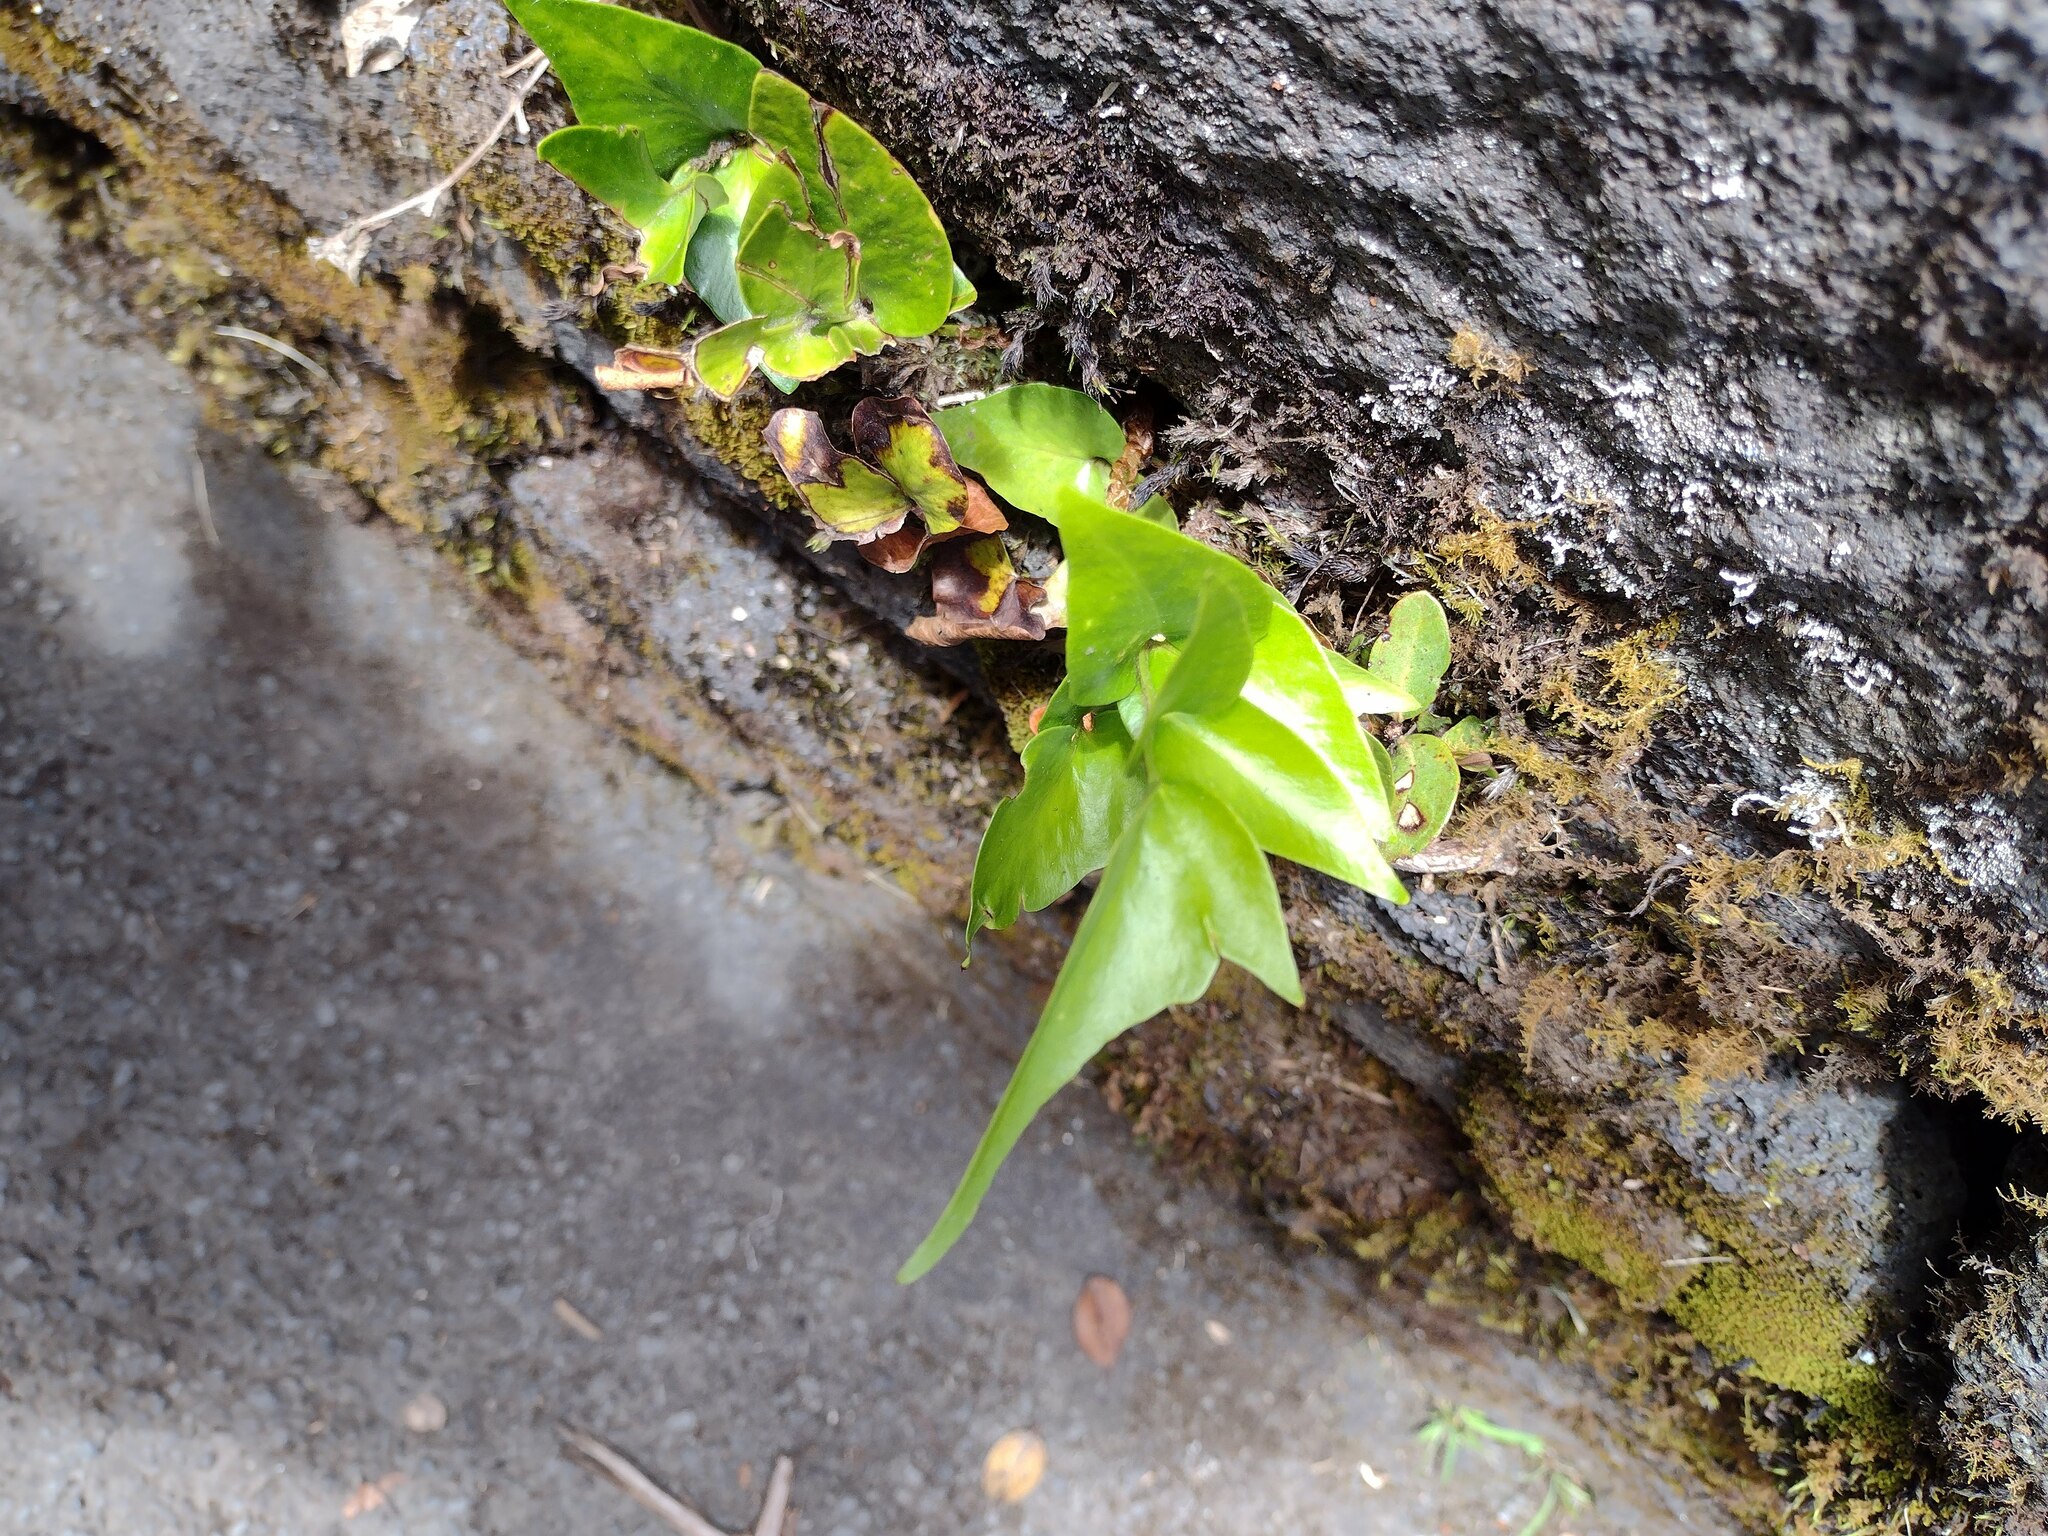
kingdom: Plantae
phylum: Tracheophyta
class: Polypodiopsida
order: Polypodiales
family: Dryopteridaceae
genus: Cyrtomium
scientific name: Cyrtomium falcatum
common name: House holly-fern
